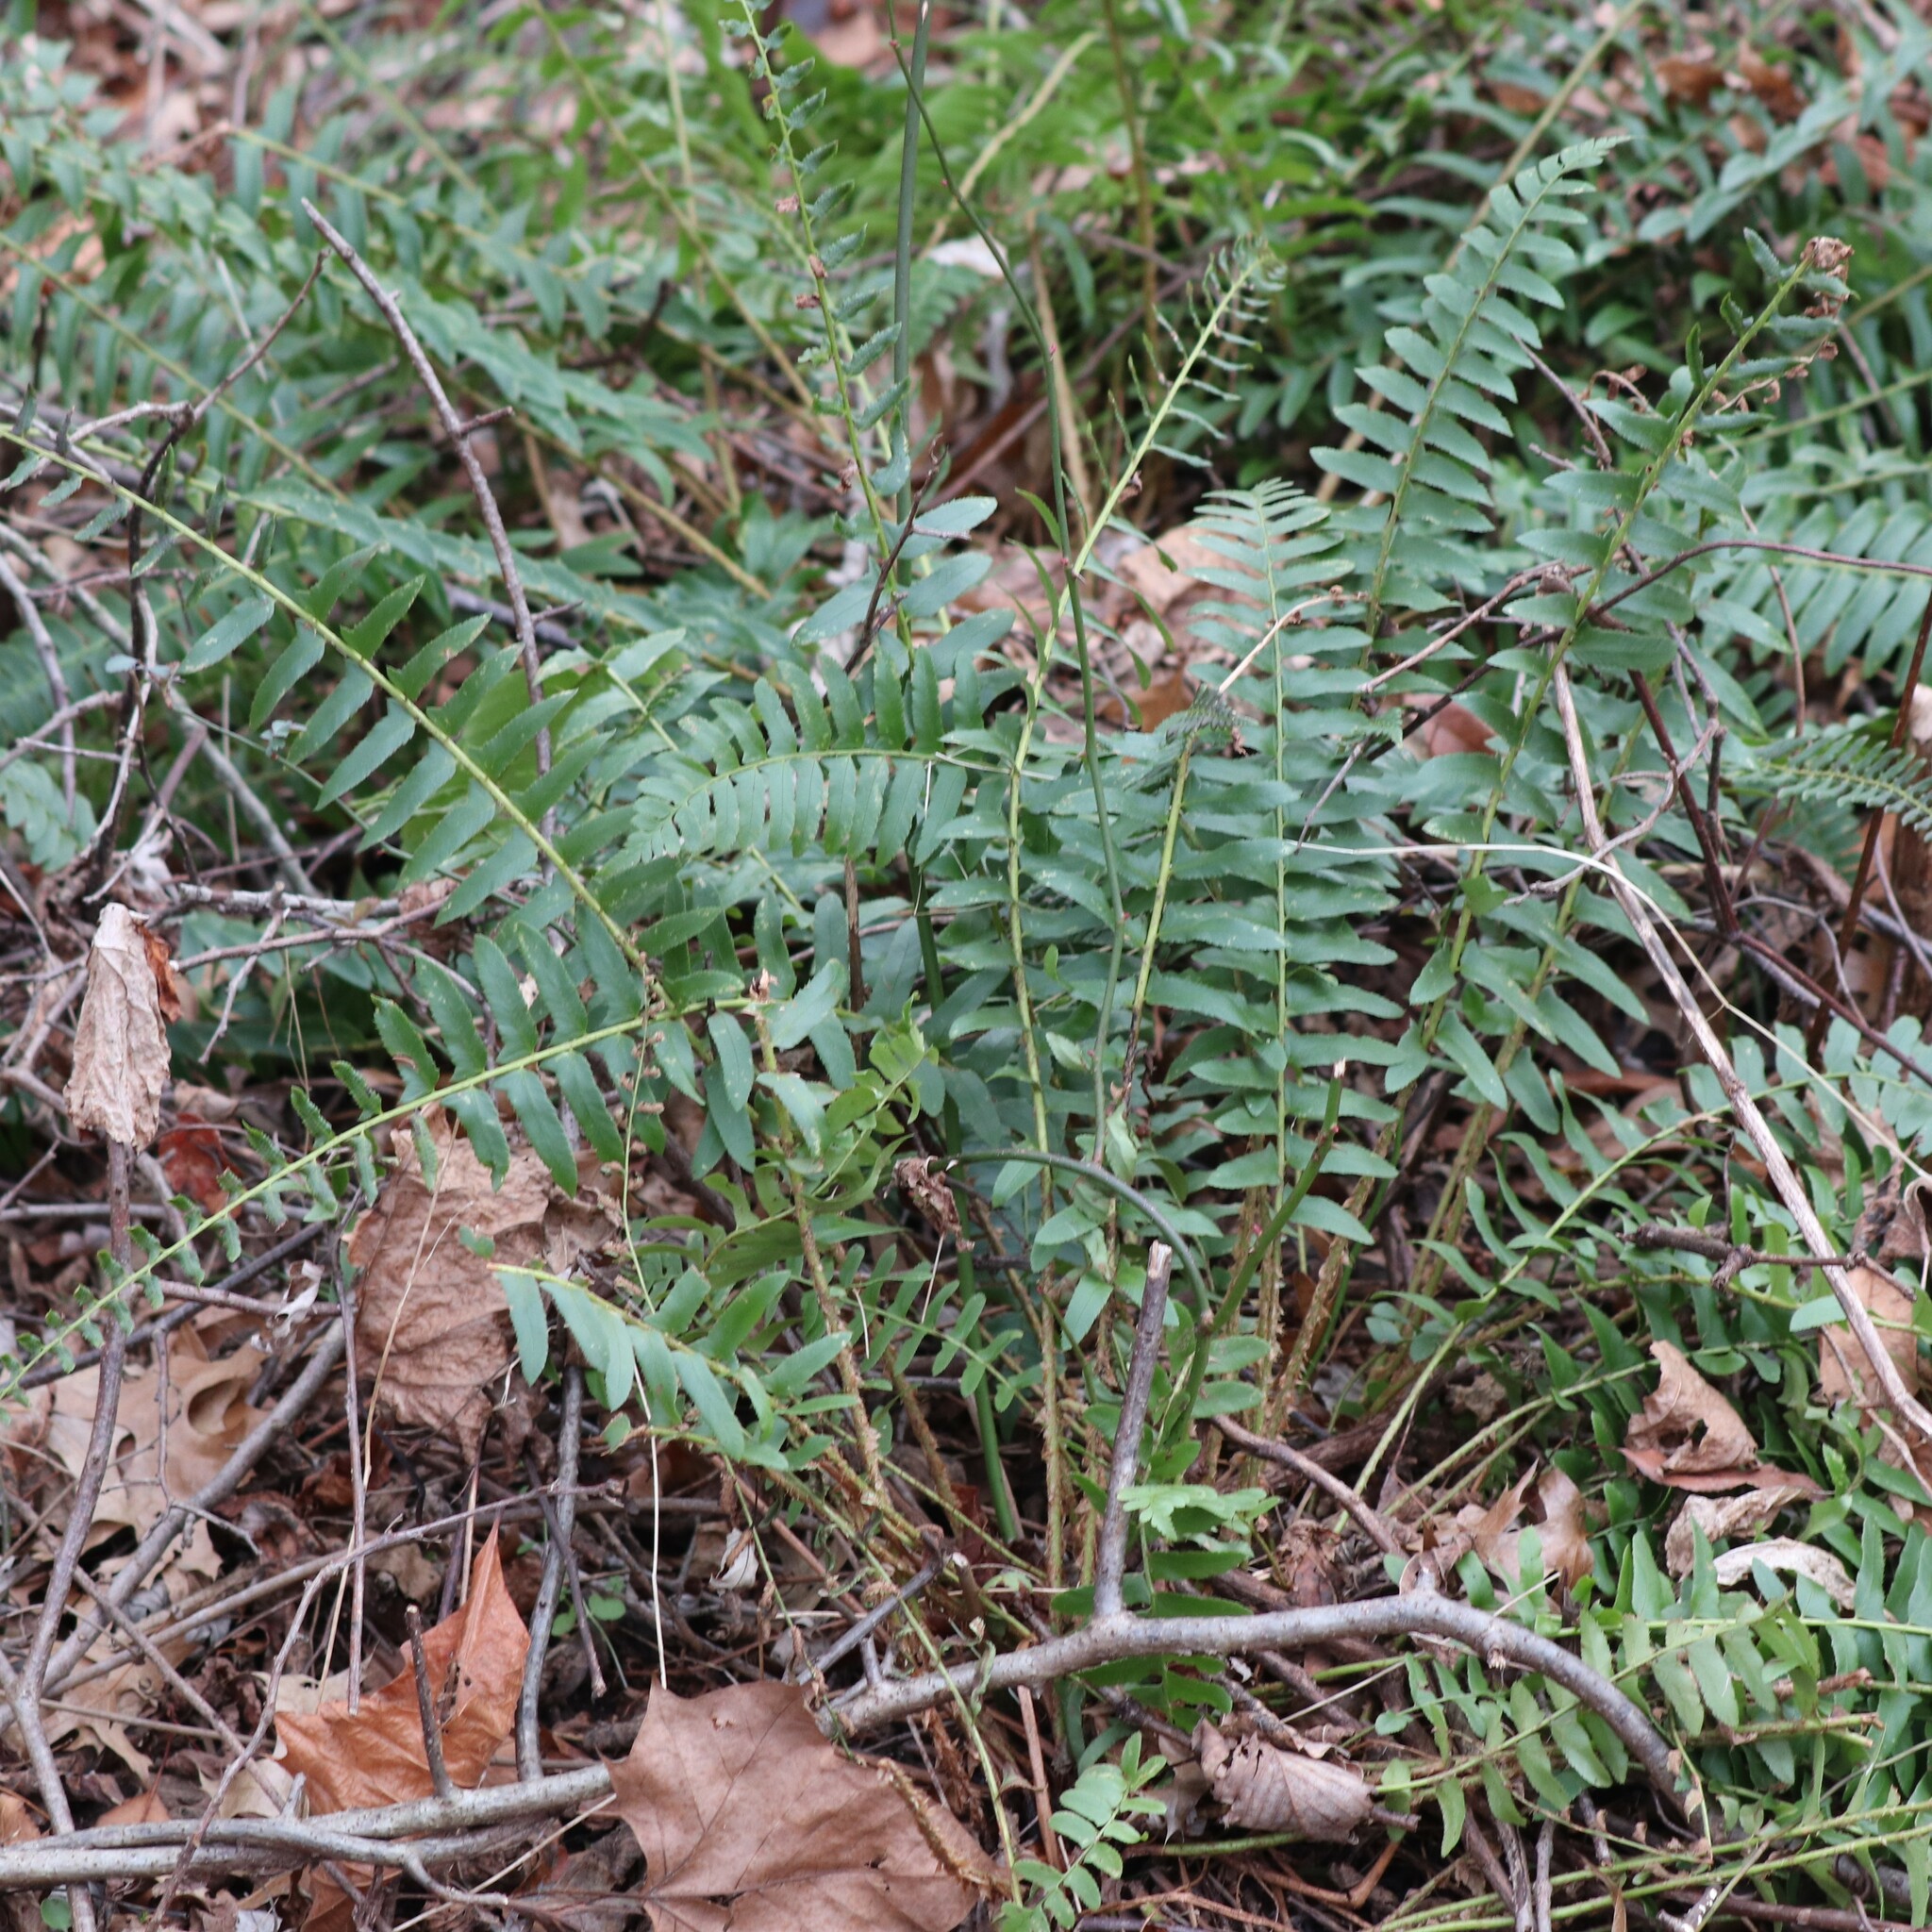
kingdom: Plantae
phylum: Tracheophyta
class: Polypodiopsida
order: Polypodiales
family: Dryopteridaceae
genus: Polystichum
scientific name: Polystichum acrostichoides
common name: Christmas fern
